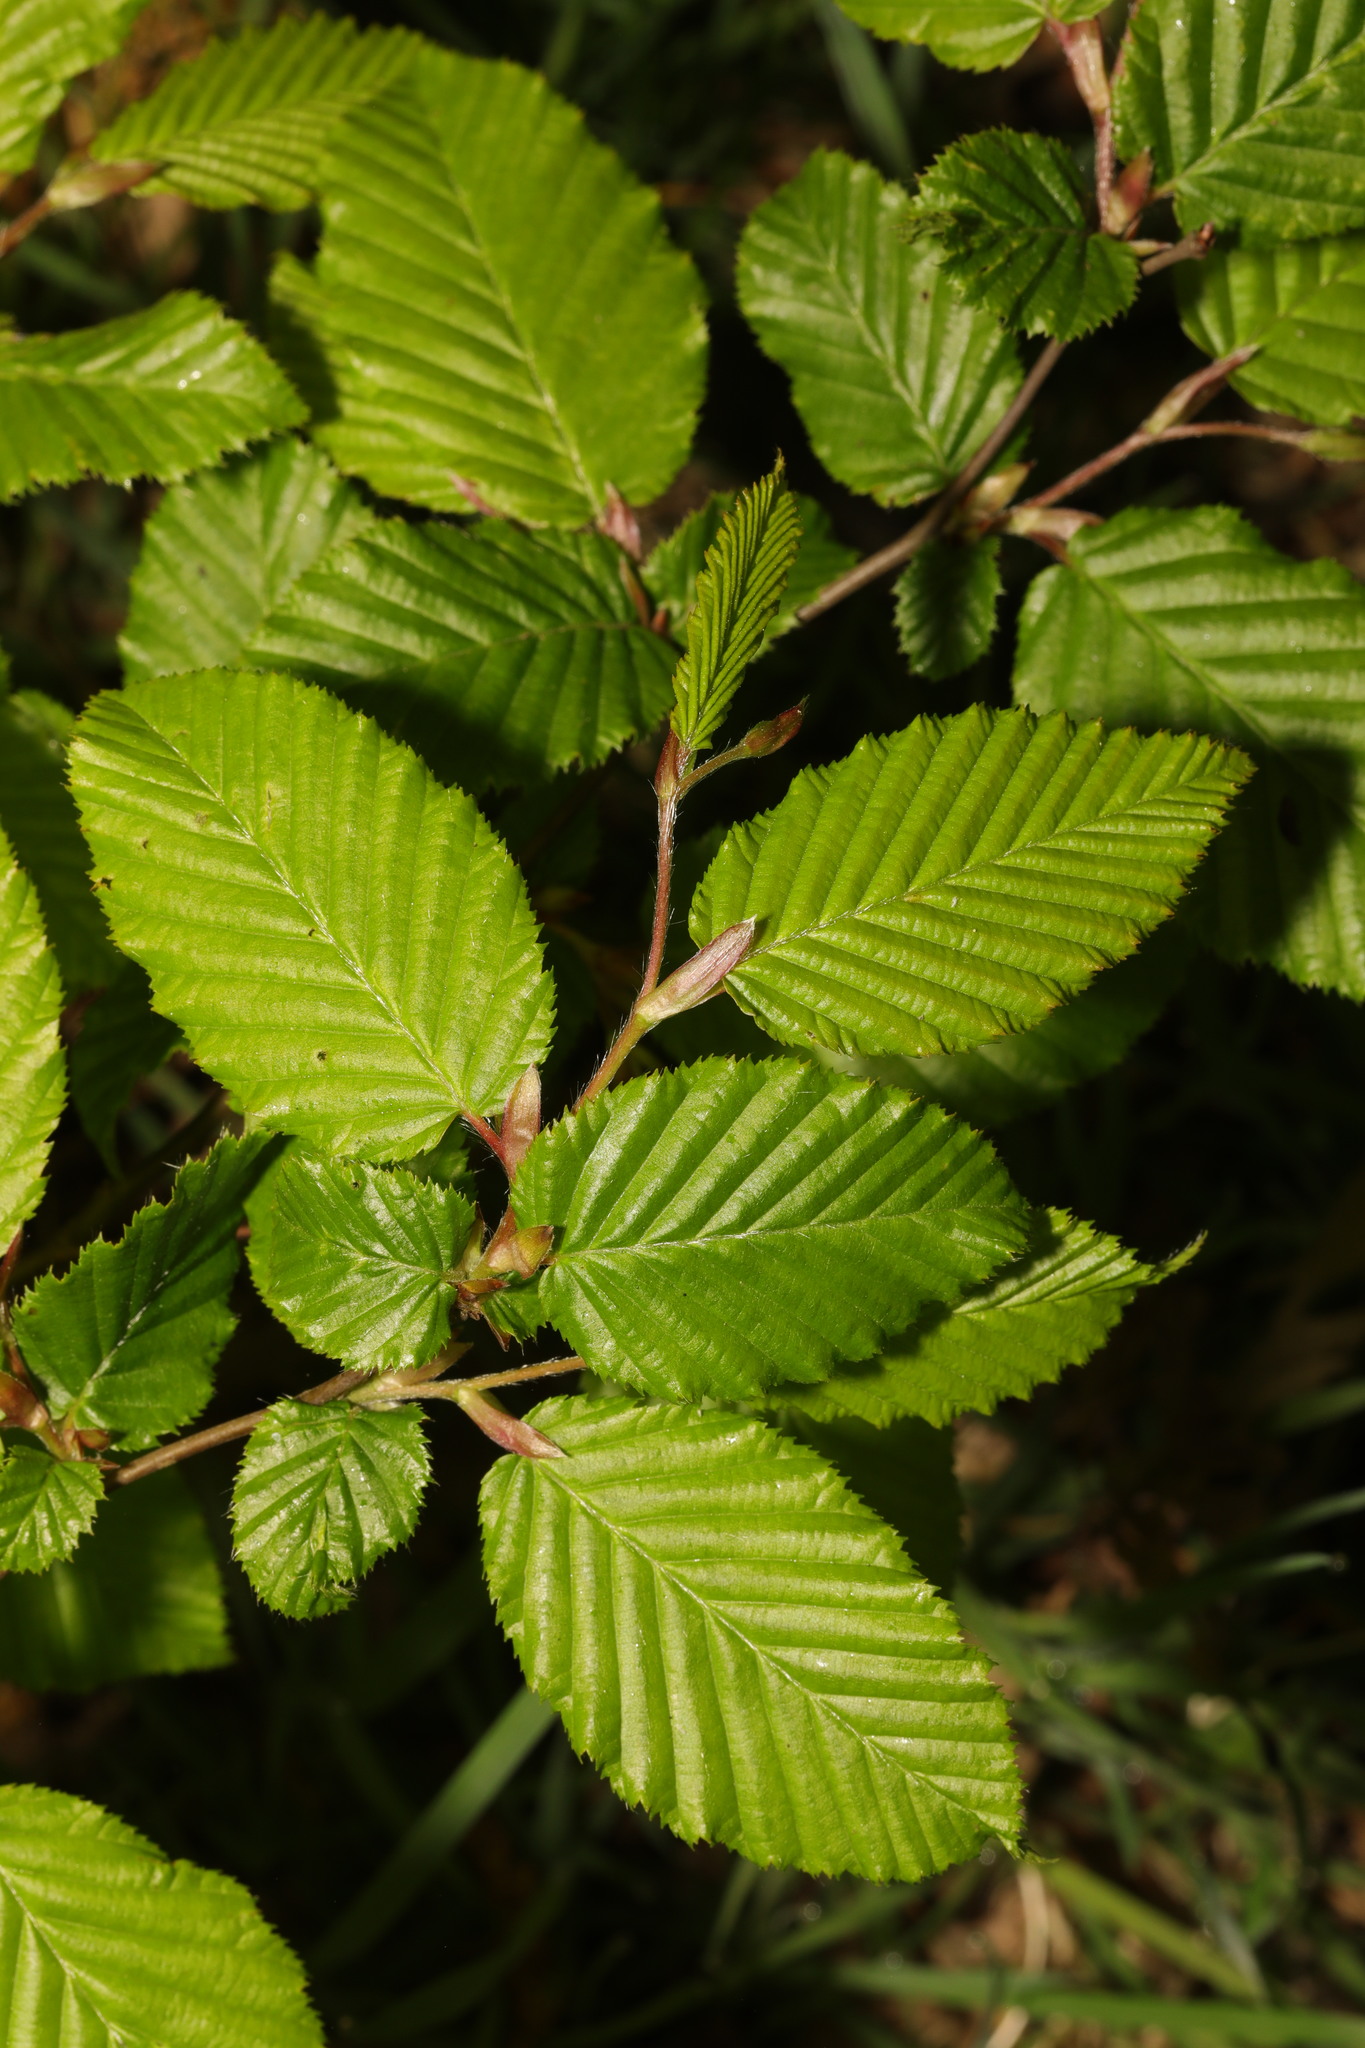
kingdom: Plantae
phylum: Tracheophyta
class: Magnoliopsida
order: Fagales
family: Betulaceae
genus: Carpinus
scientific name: Carpinus betulus
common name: Hornbeam
